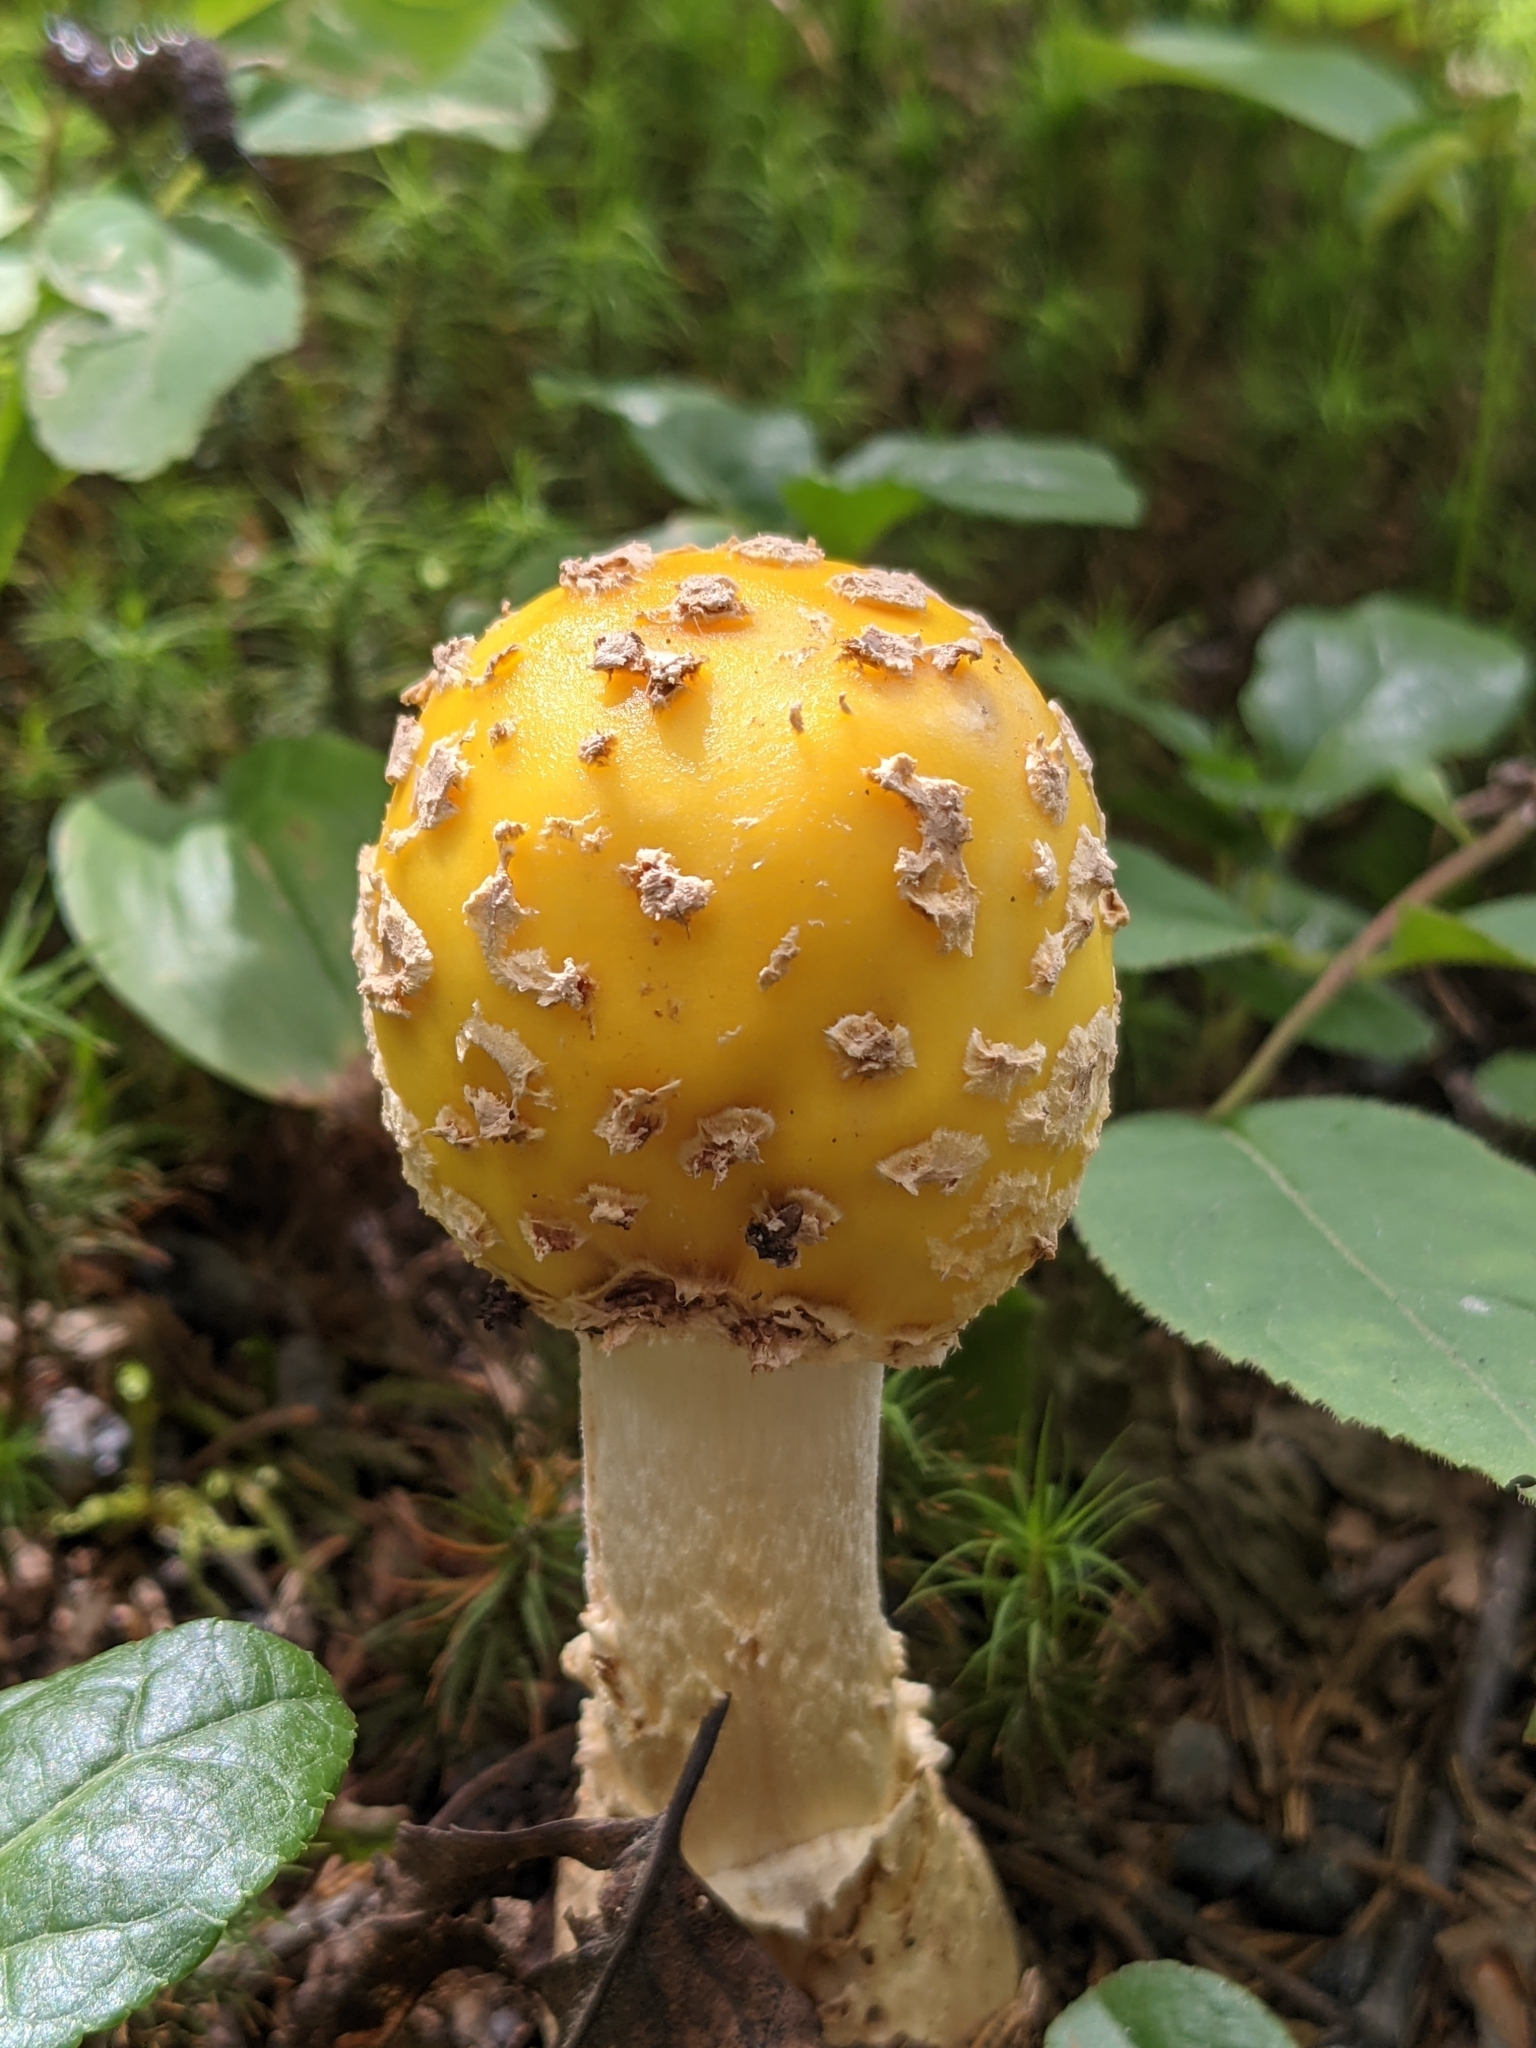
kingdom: Fungi
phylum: Basidiomycota
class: Agaricomycetes
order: Agaricales
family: Amanitaceae
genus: Amanita
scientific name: Amanita muscaria
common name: Fly agaric
